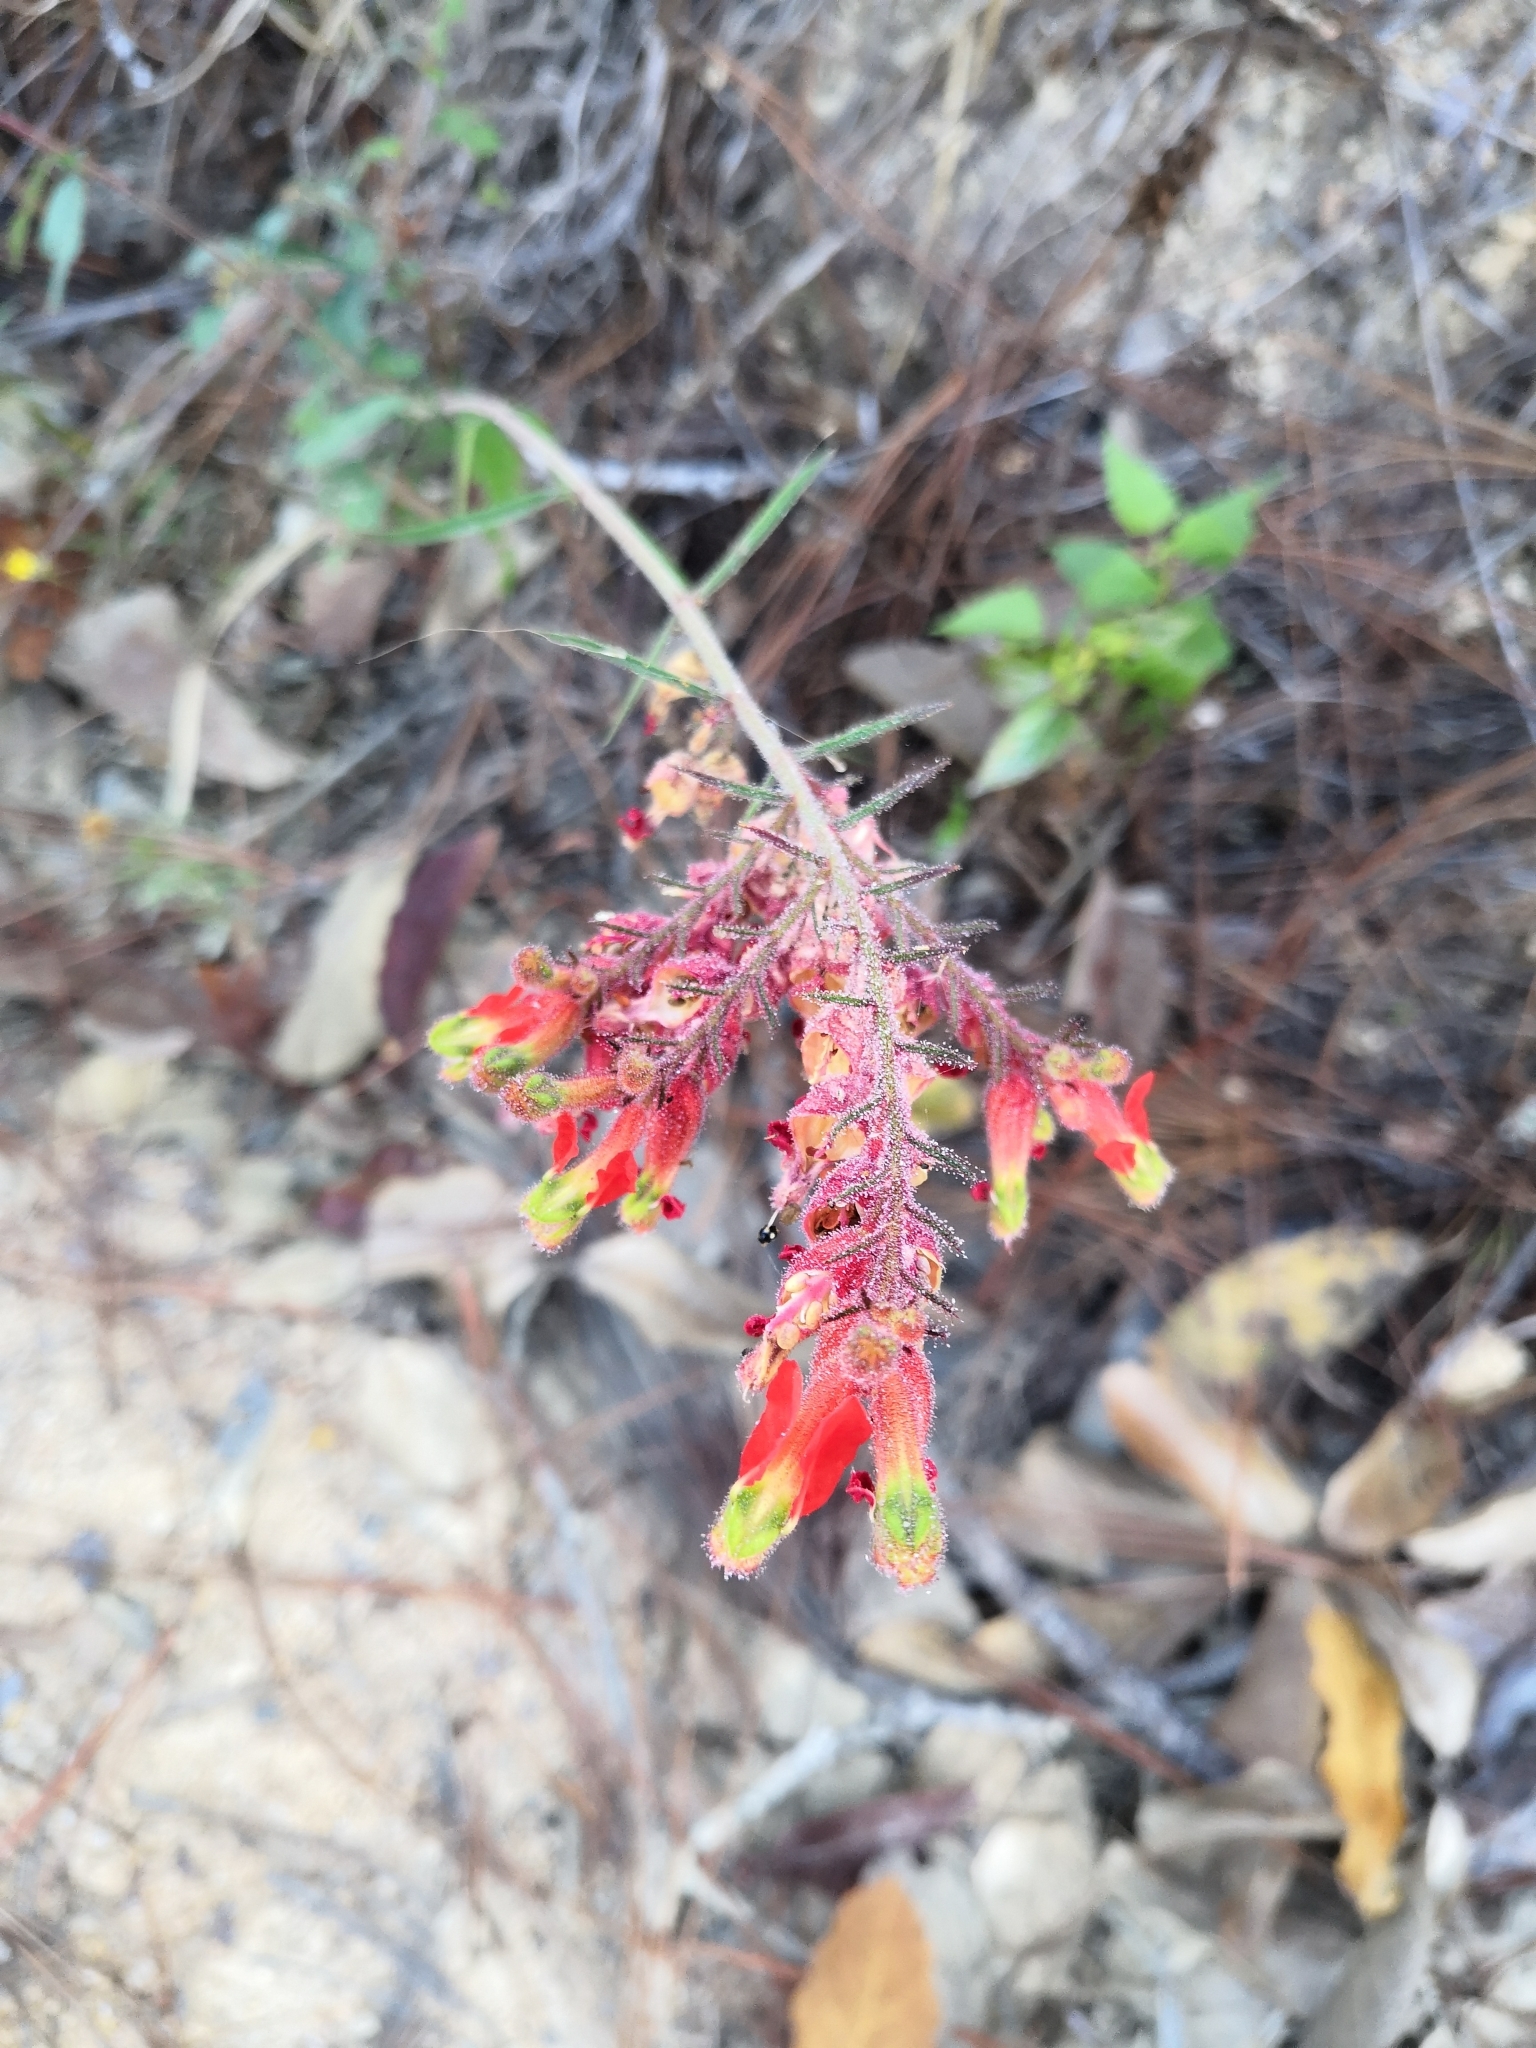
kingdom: Plantae
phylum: Tracheophyta
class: Magnoliopsida
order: Myrtales
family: Lythraceae
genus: Cuphea
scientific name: Cuphea hookeriana
